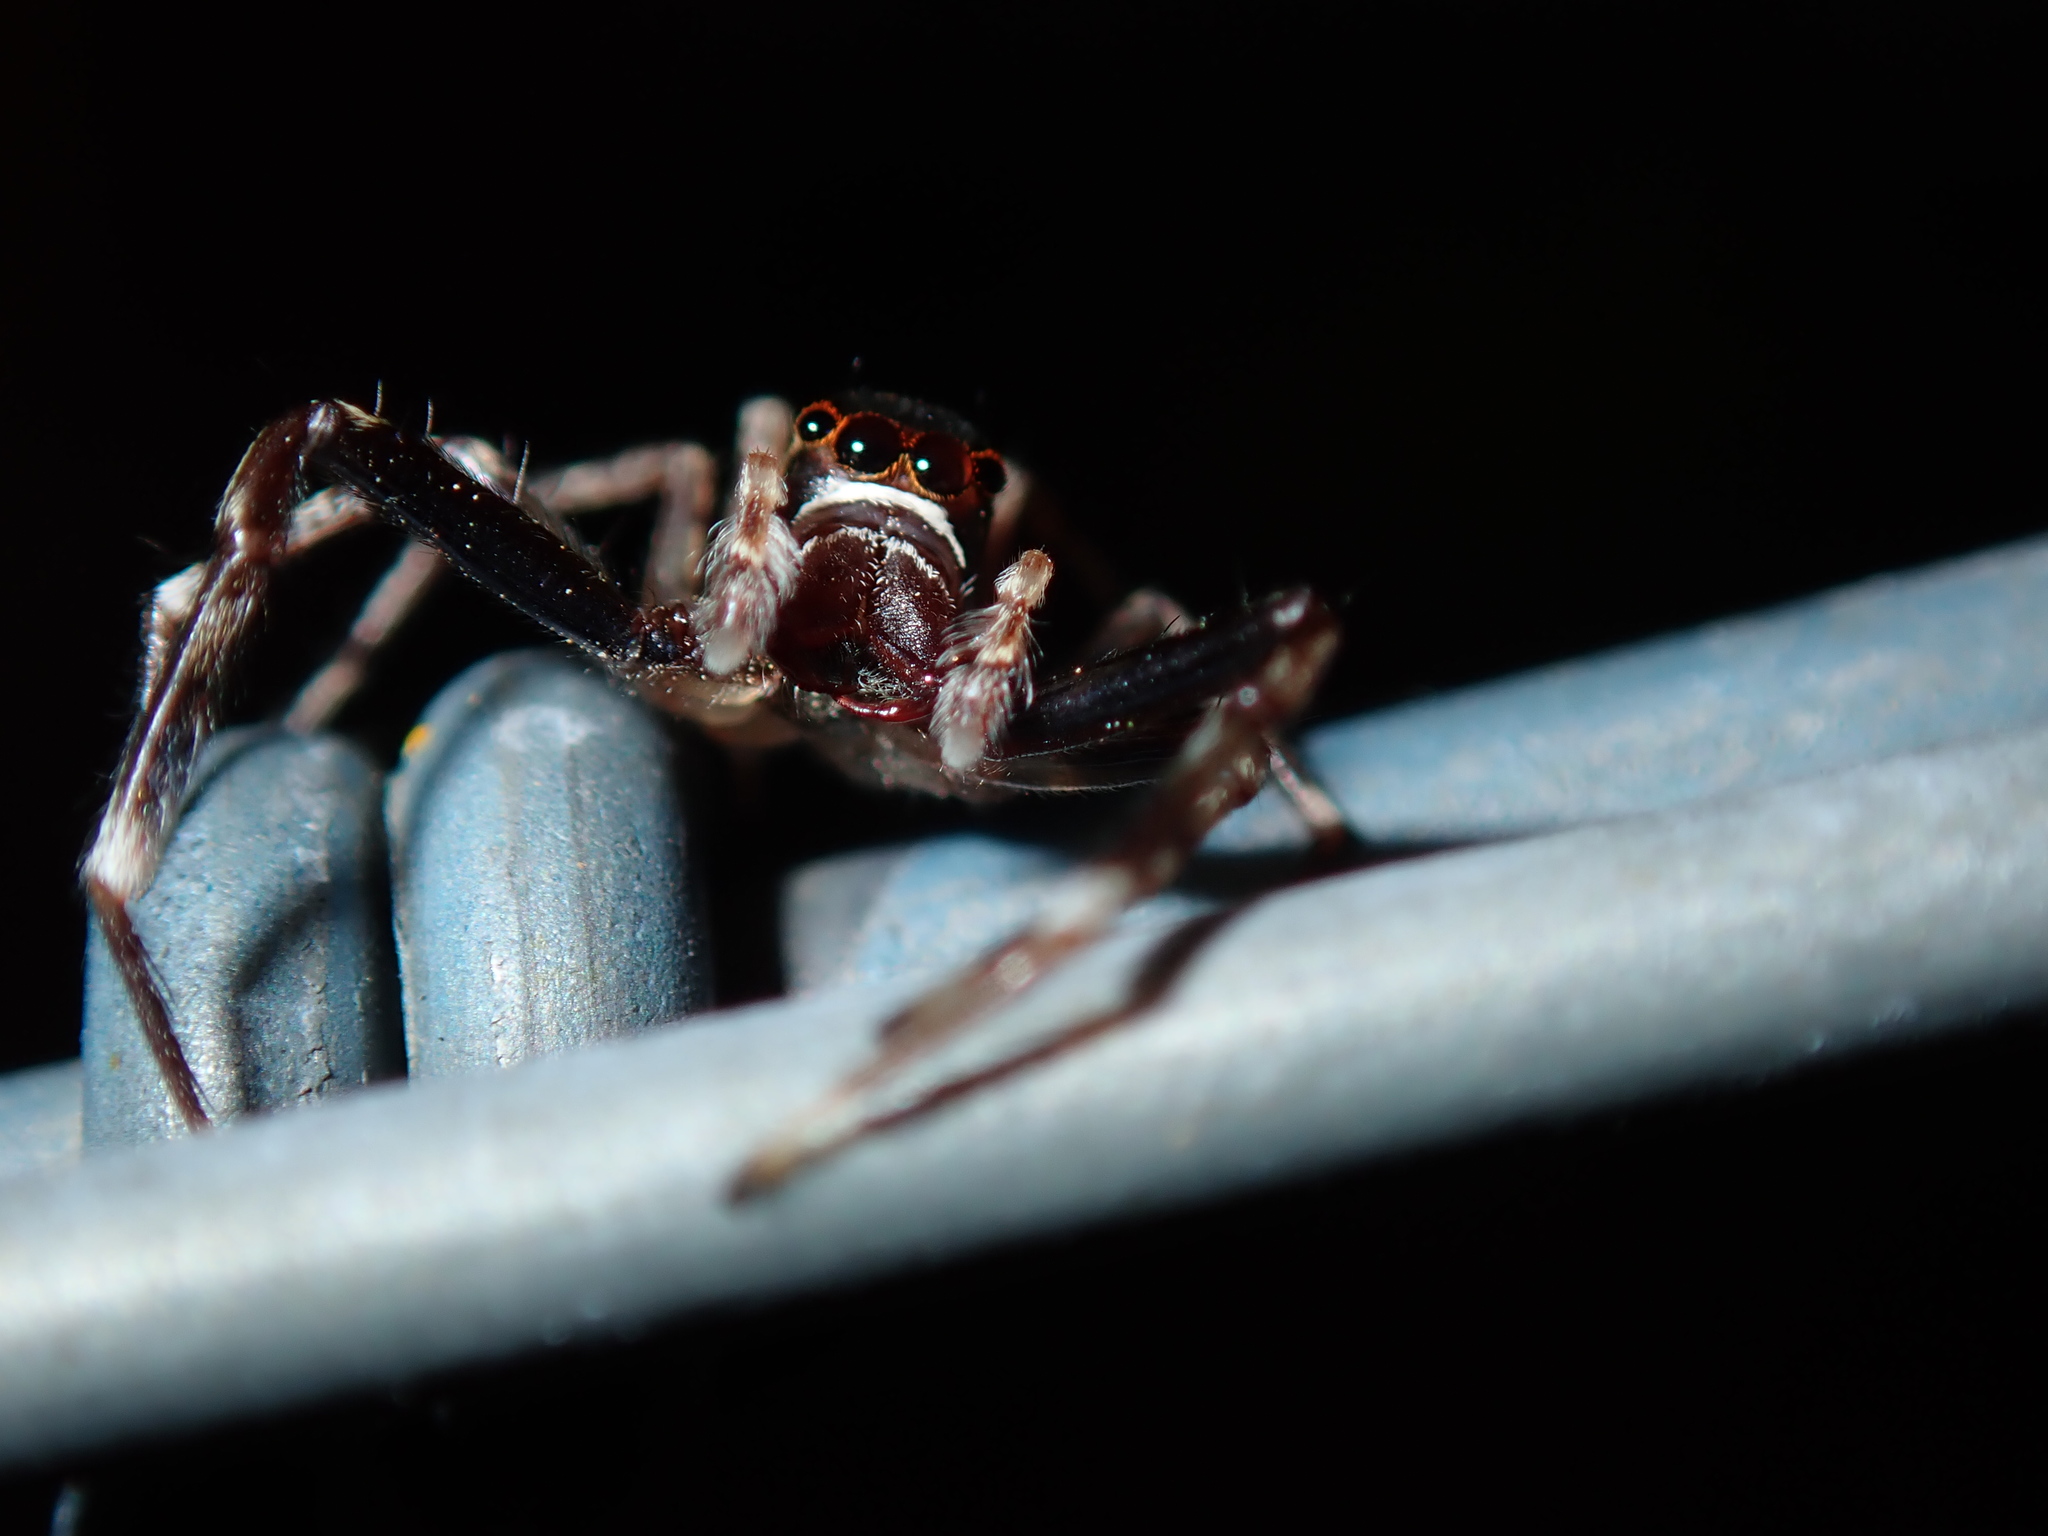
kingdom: Animalia
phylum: Arthropoda
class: Arachnida
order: Araneae
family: Salticidae
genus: Helpis
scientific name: Helpis minitabunda
